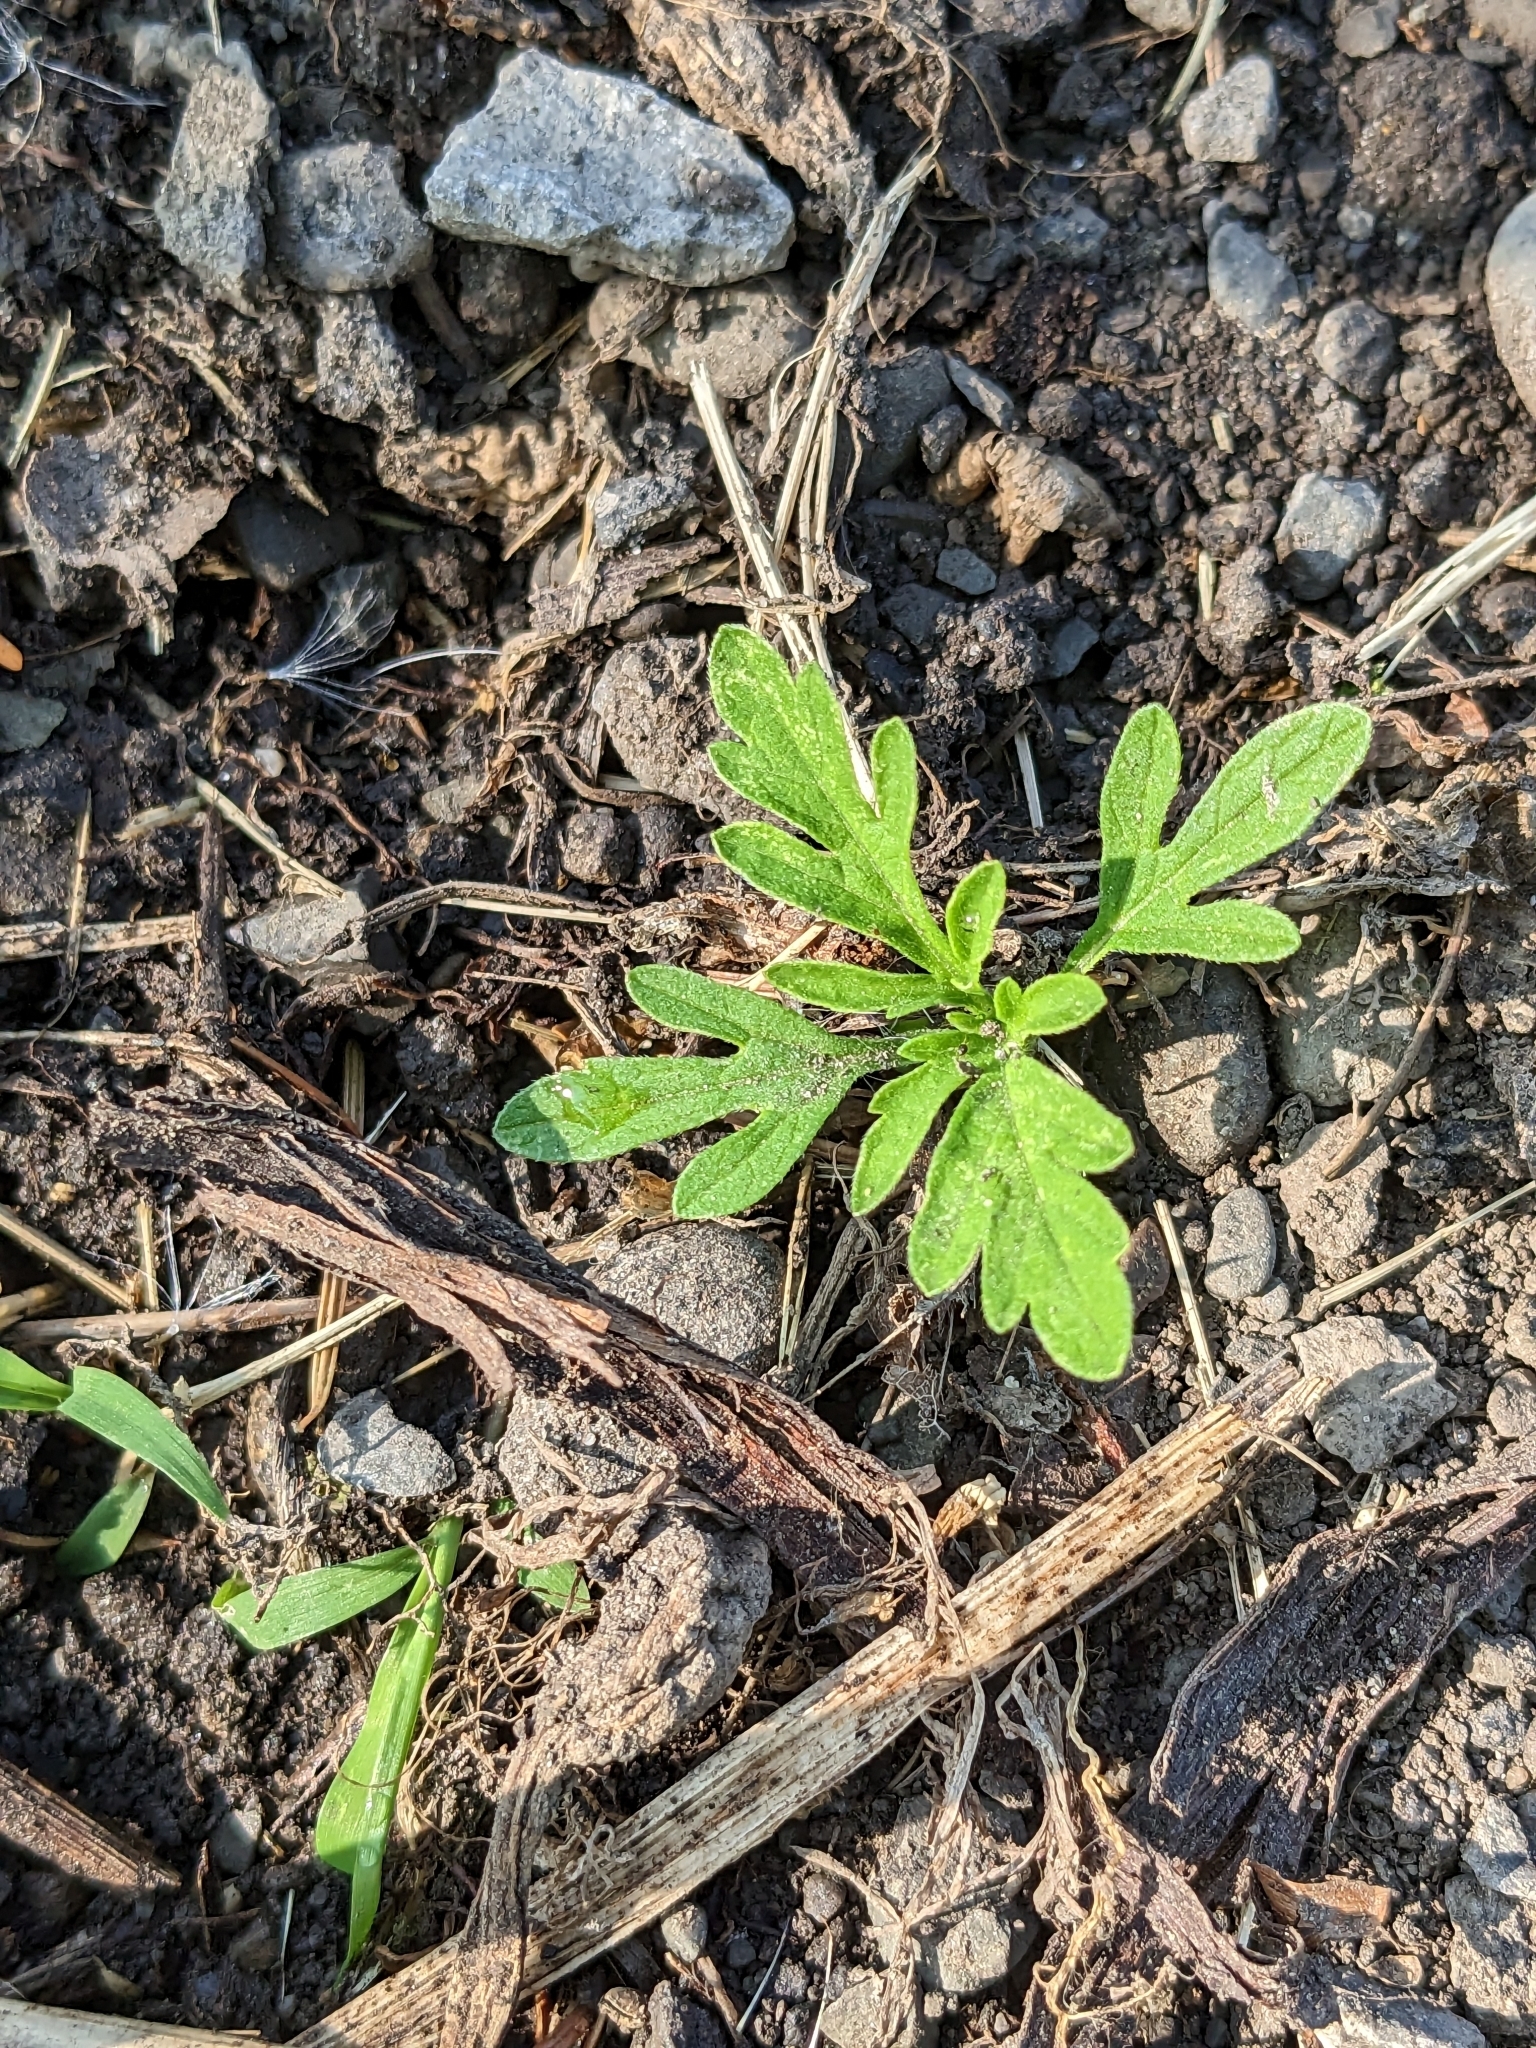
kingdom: Plantae
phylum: Tracheophyta
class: Magnoliopsida
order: Asterales
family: Asteraceae
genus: Ambrosia
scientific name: Ambrosia artemisiifolia
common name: Annual ragweed
